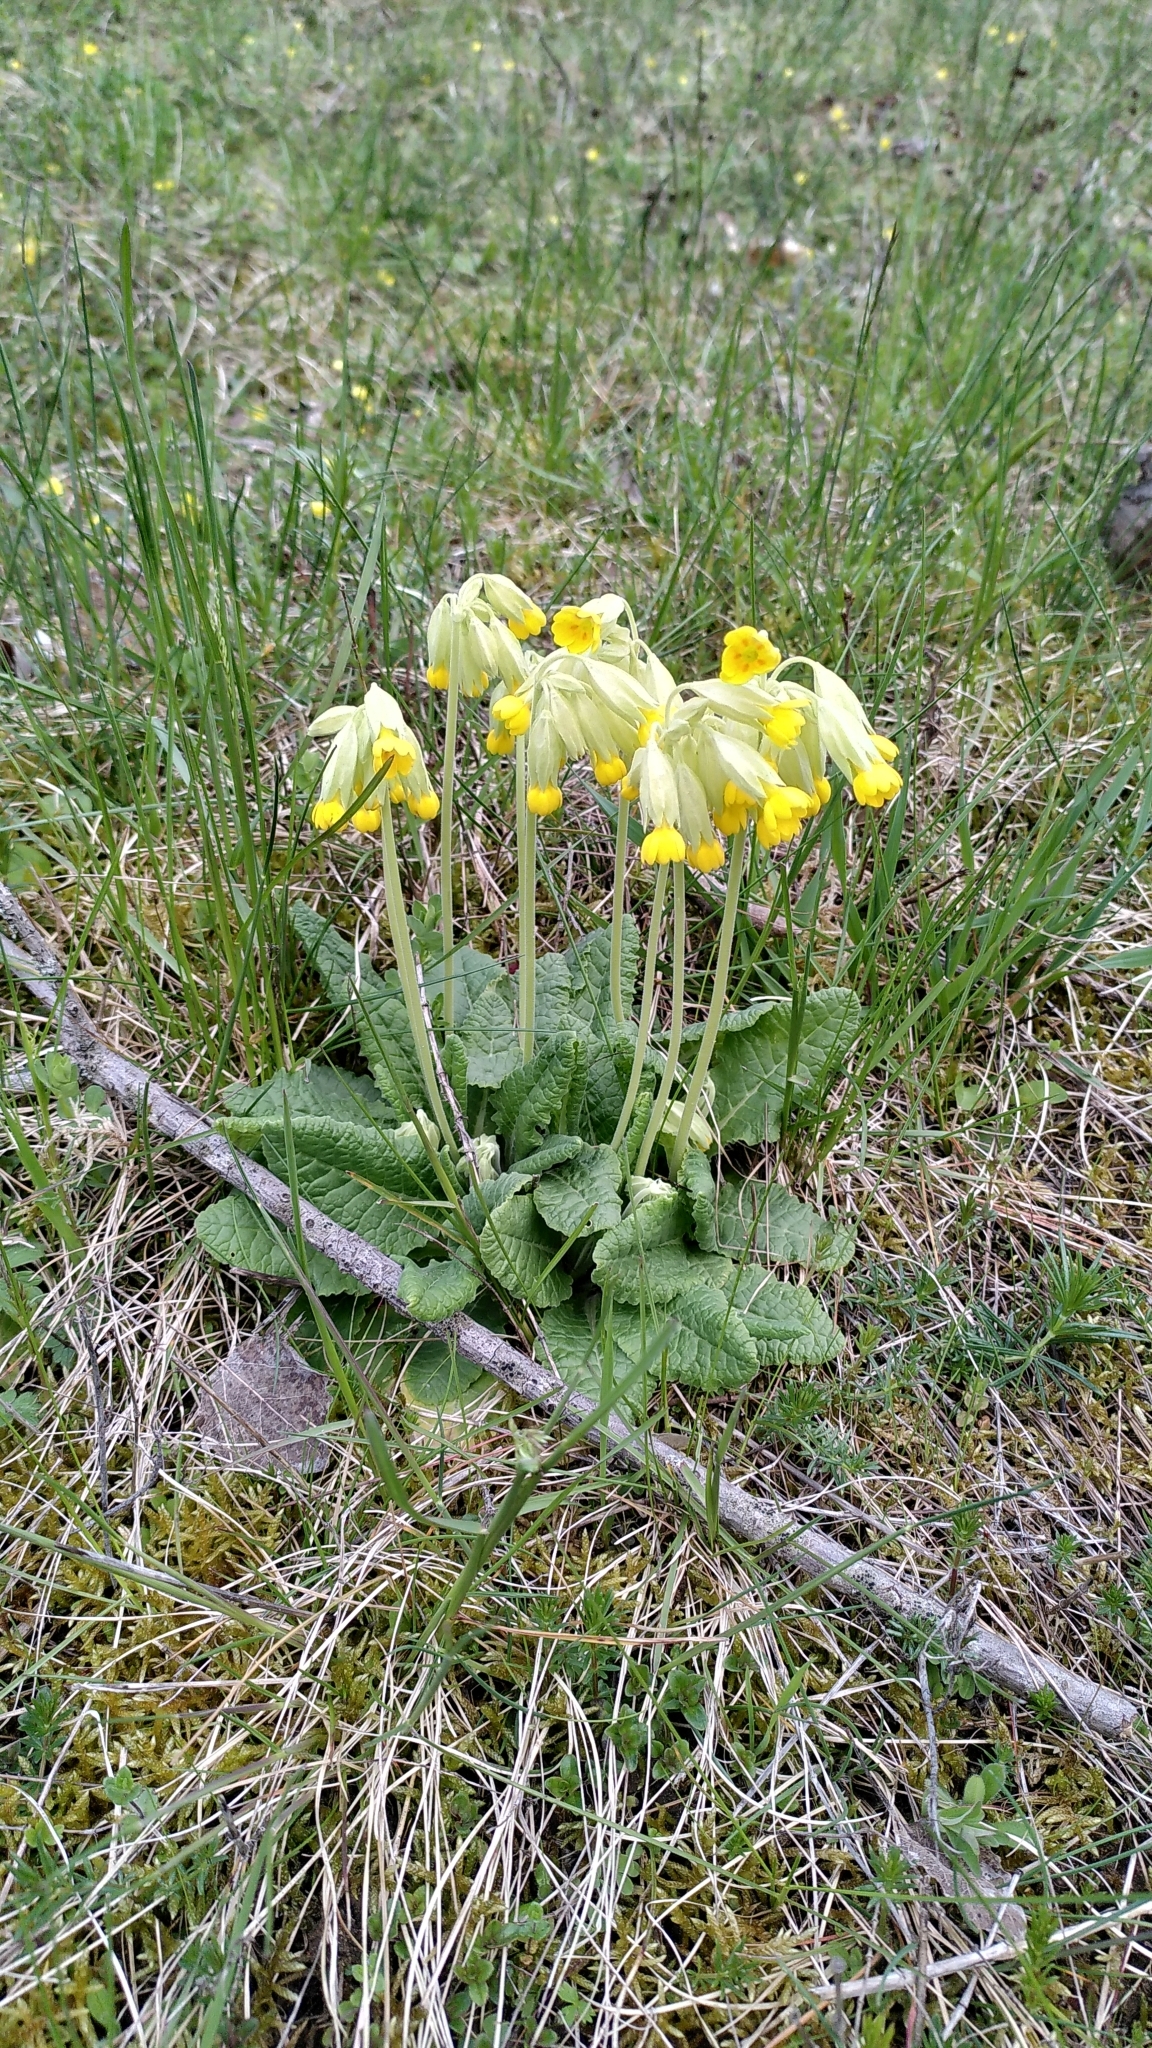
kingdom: Plantae
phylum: Tracheophyta
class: Magnoliopsida
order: Ericales
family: Primulaceae
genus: Primula
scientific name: Primula veris
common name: Cowslip
